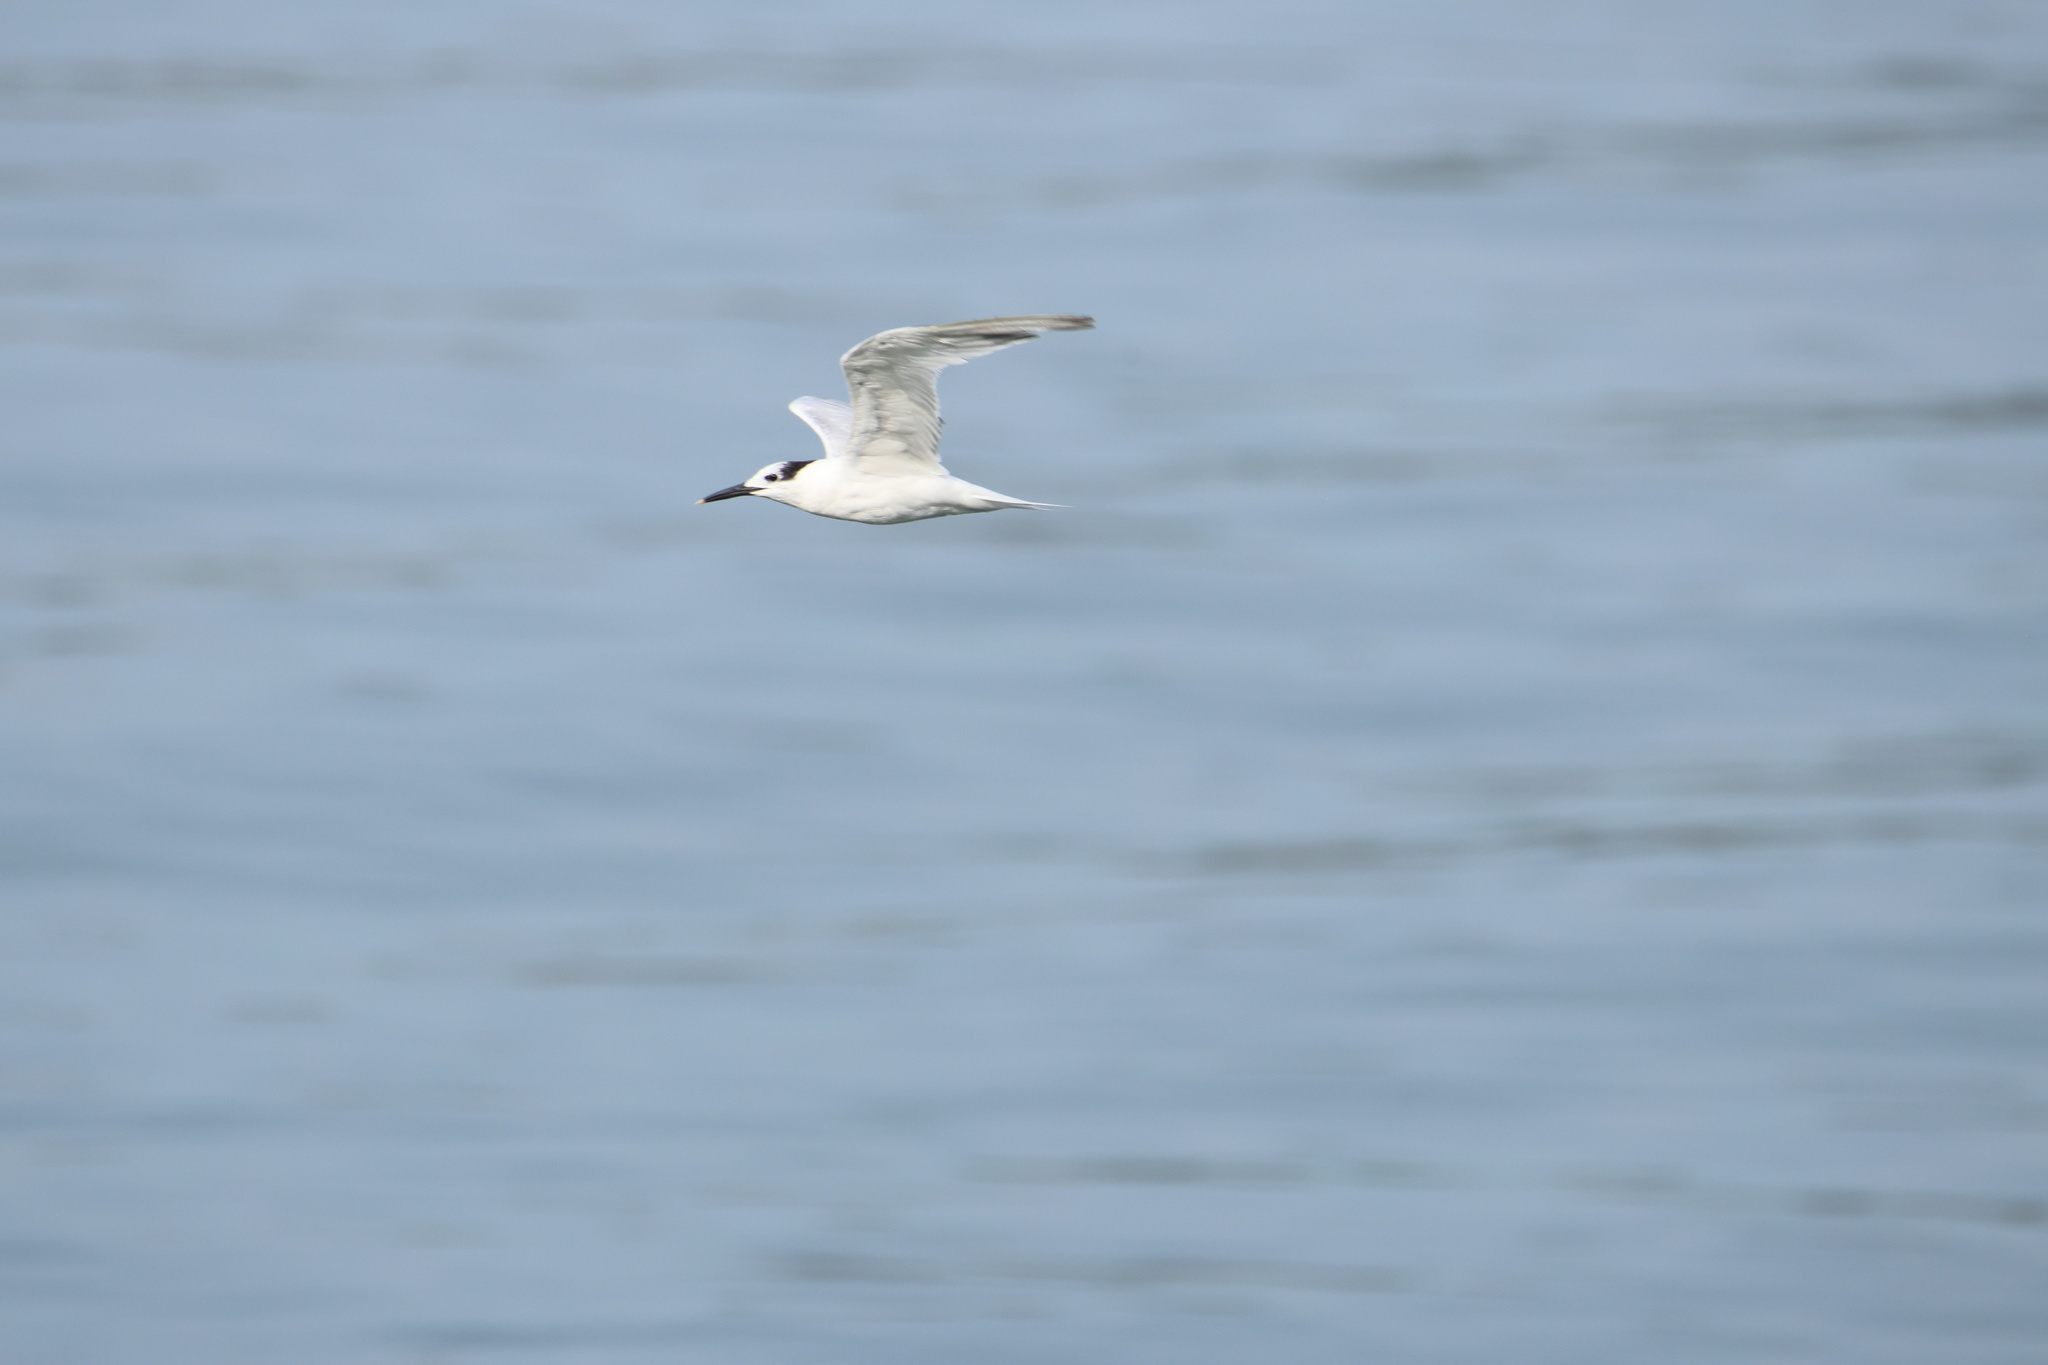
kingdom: Animalia
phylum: Chordata
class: Aves
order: Charadriiformes
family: Laridae
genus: Thalasseus
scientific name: Thalasseus sandvicensis
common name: Sandwich tern
